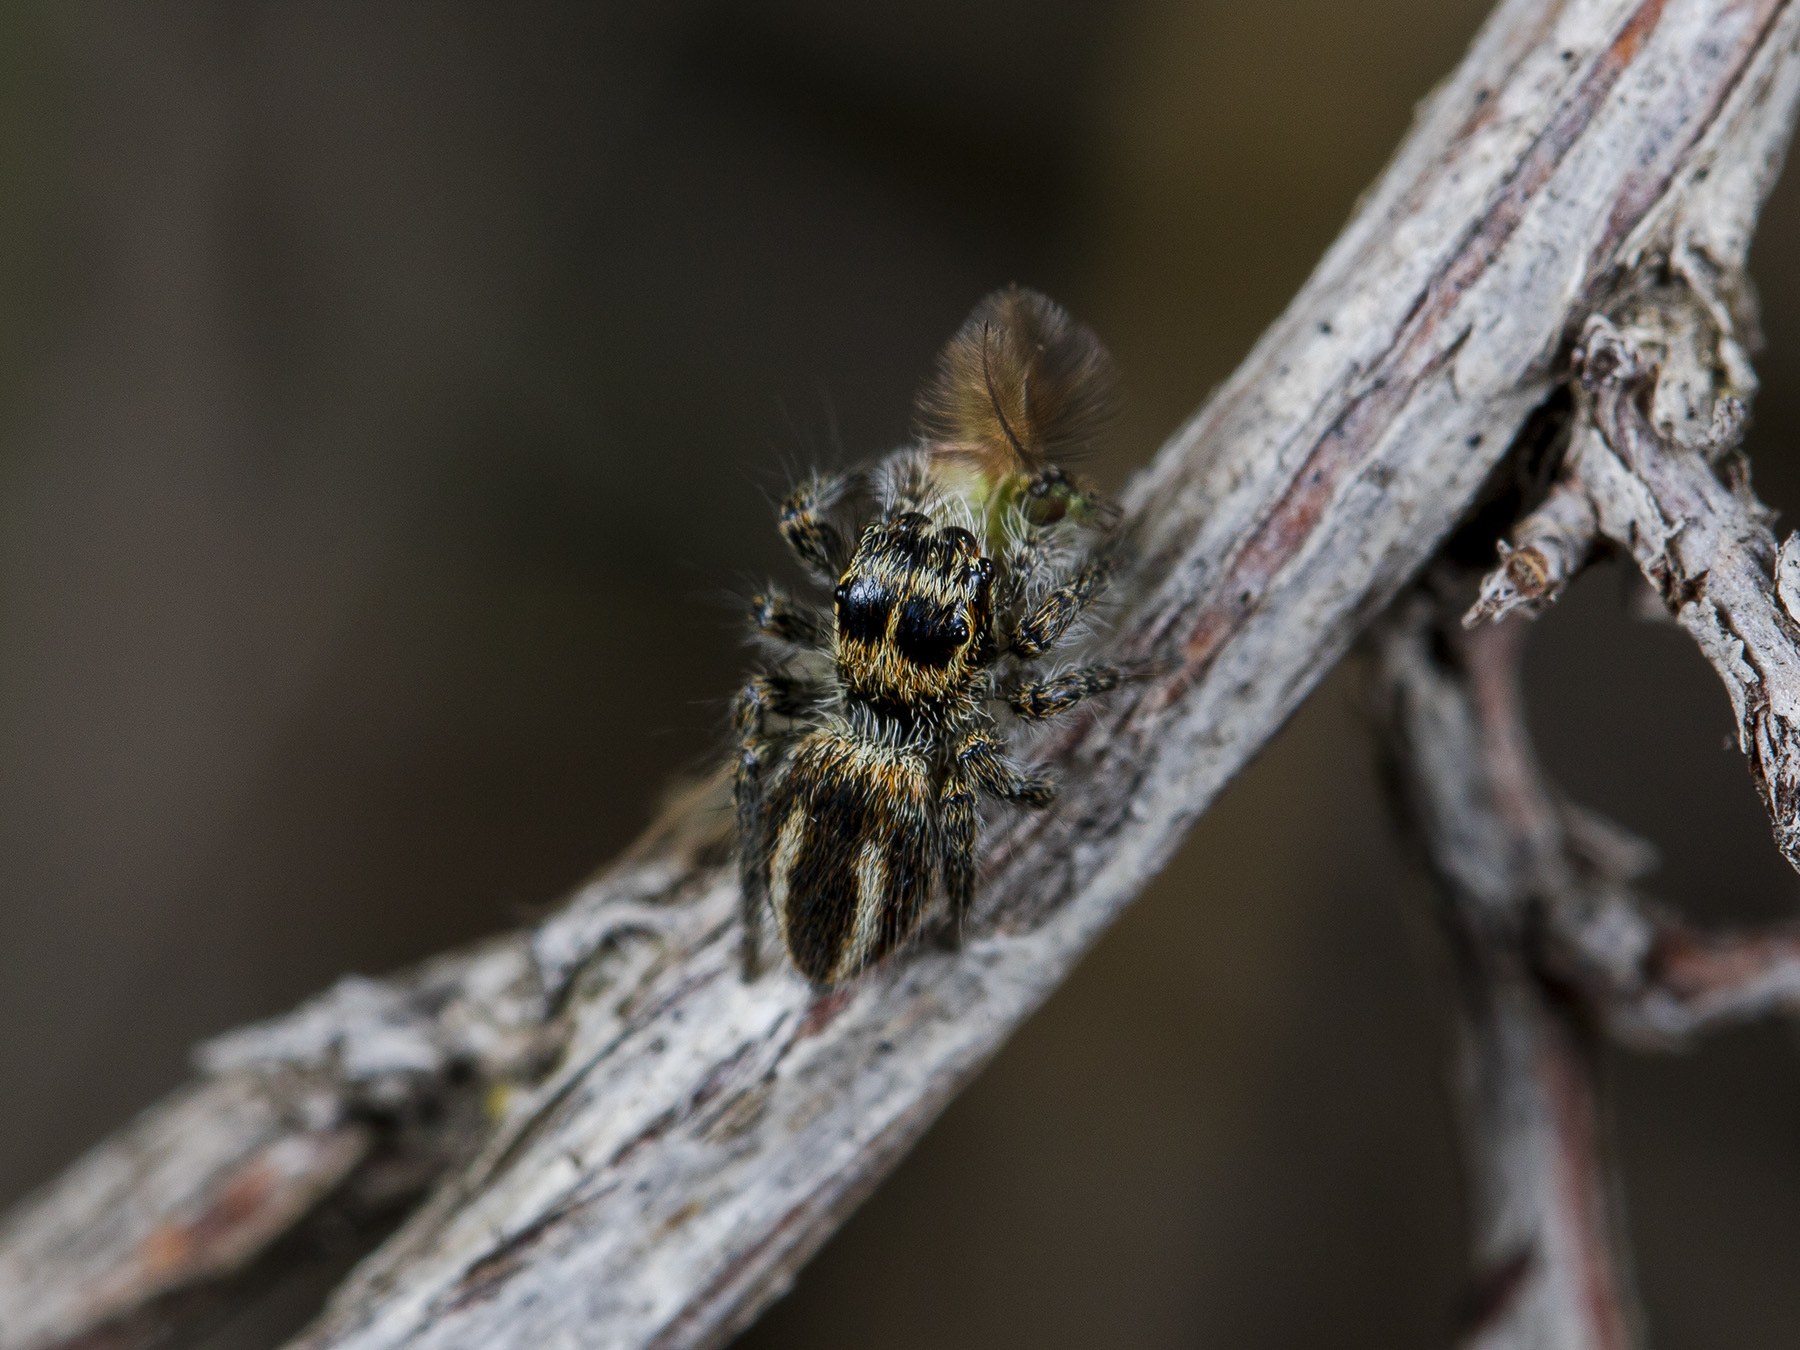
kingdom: Animalia
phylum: Arthropoda
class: Arachnida
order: Araneae
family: Salticidae
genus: Philaeus
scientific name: Philaeus chrysops
